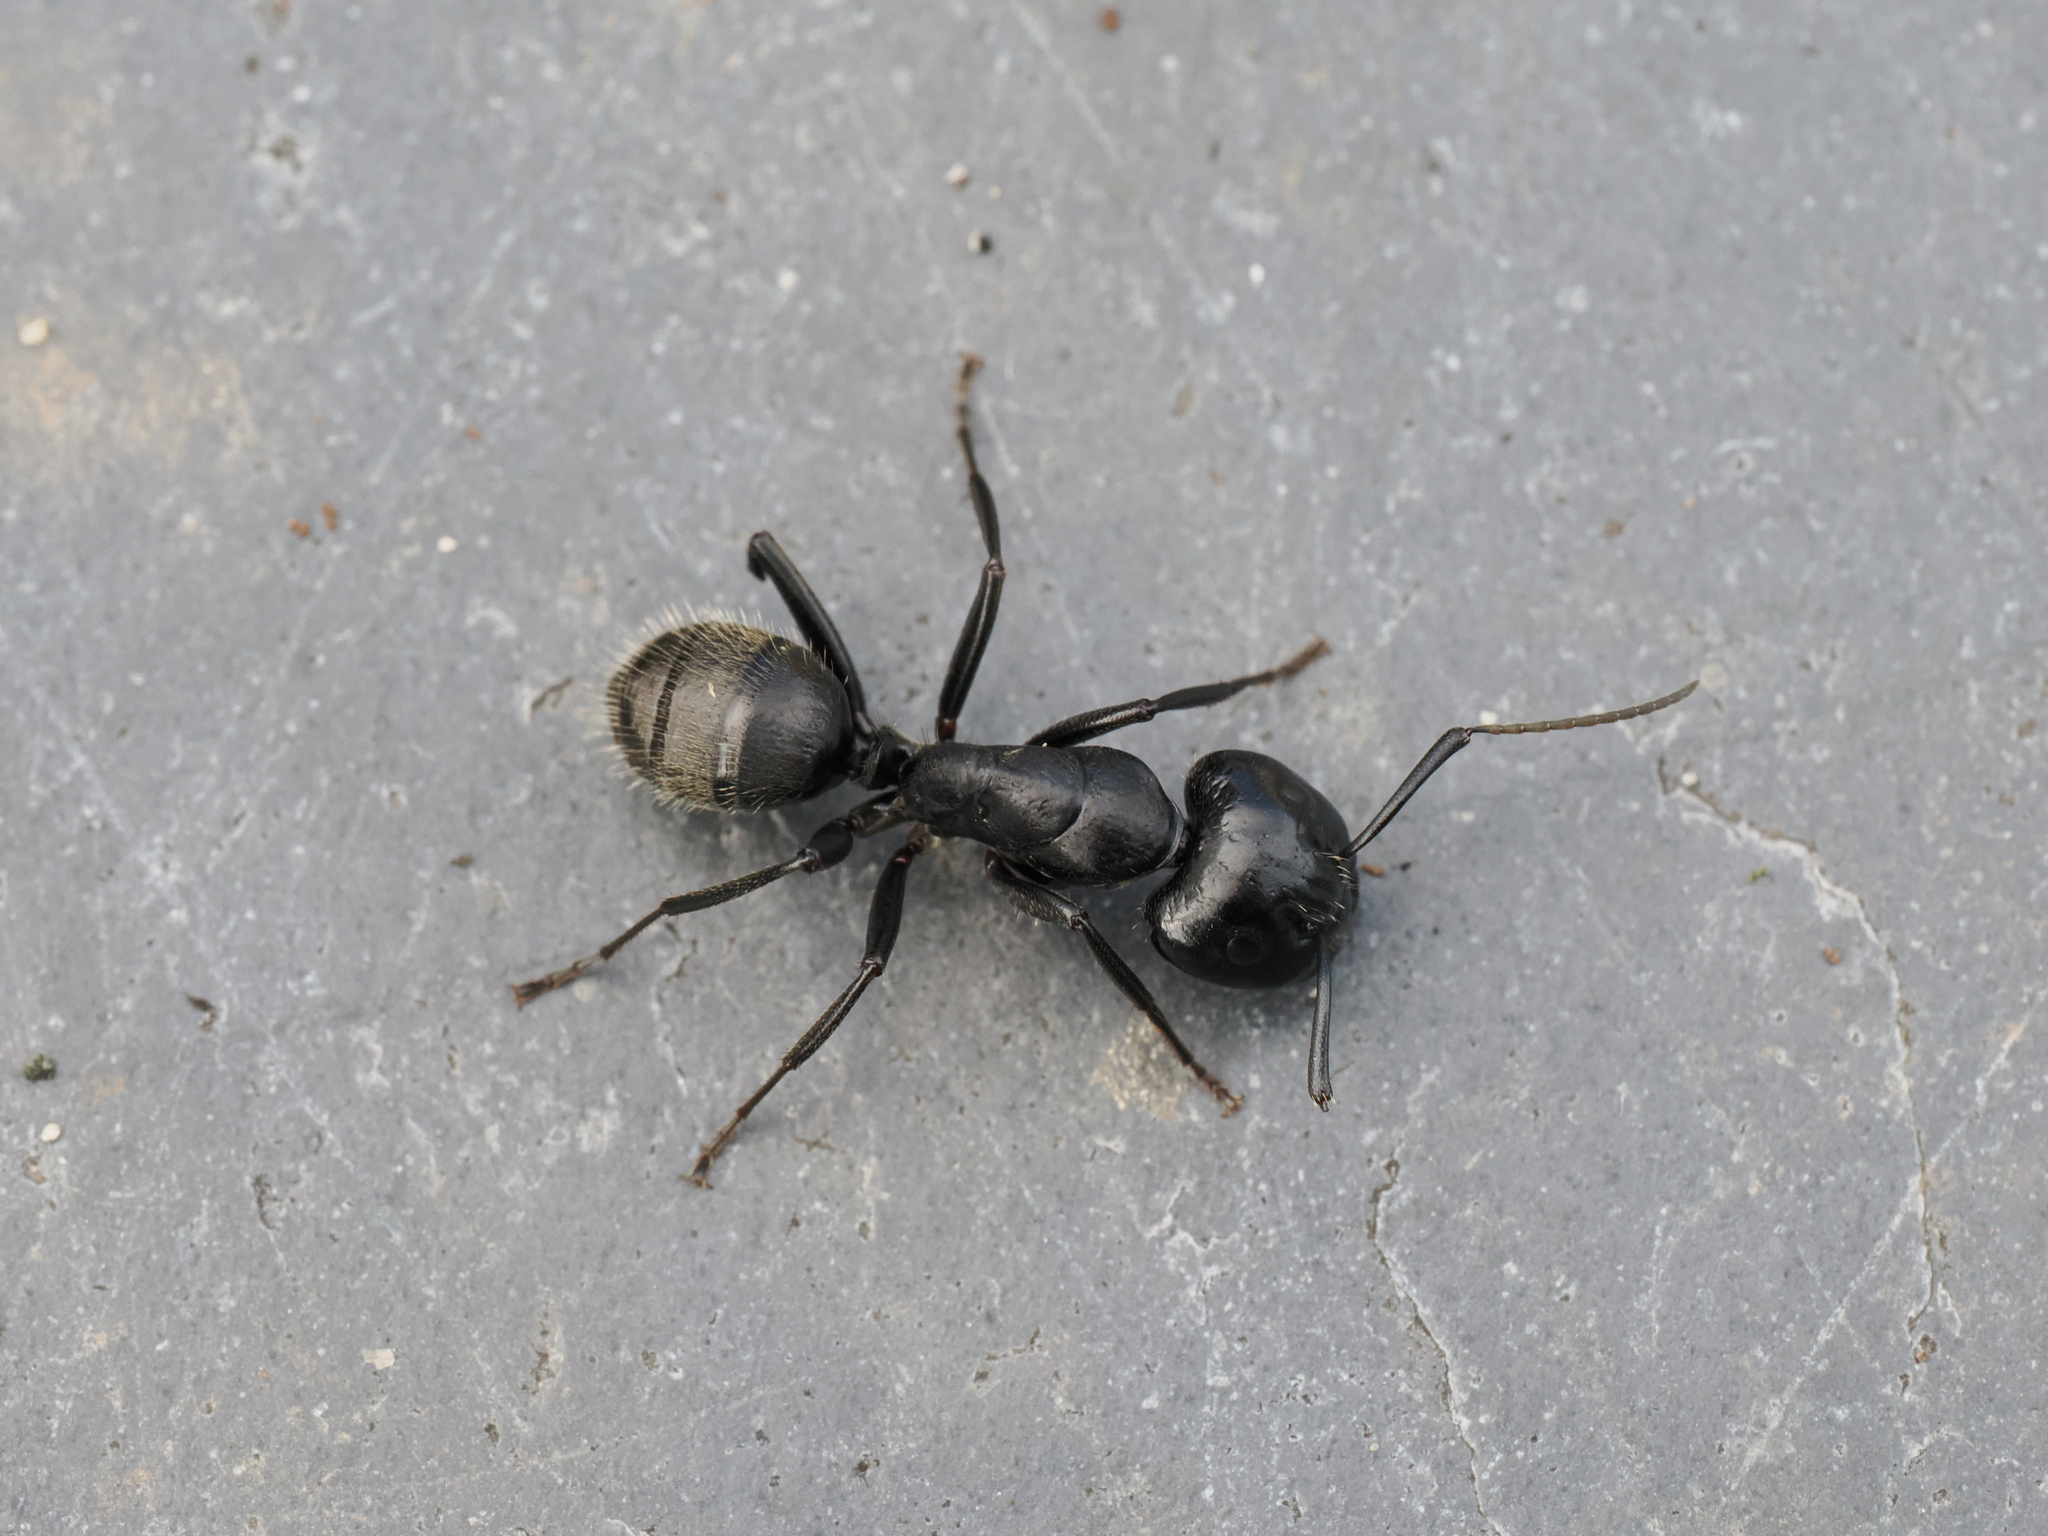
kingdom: Animalia
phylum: Arthropoda
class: Insecta
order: Hymenoptera
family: Formicidae
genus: Camponotus
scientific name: Camponotus vagus
